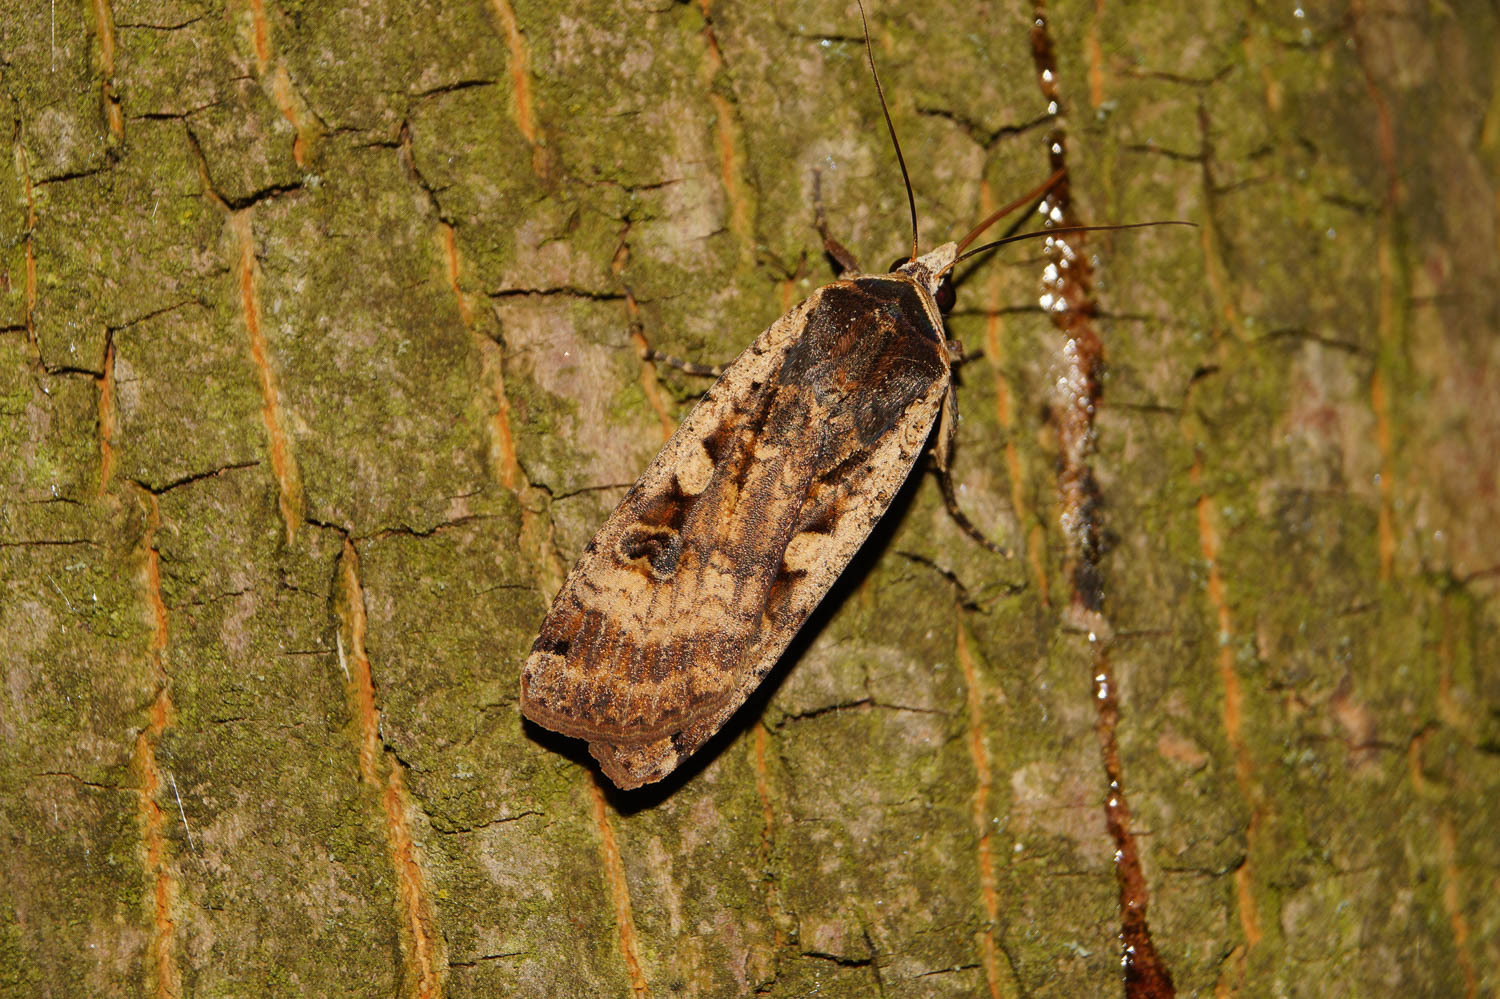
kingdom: Animalia
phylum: Arthropoda
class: Insecta
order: Lepidoptera
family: Noctuidae
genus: Noctua
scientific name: Noctua pronuba
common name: Large yellow underwing
